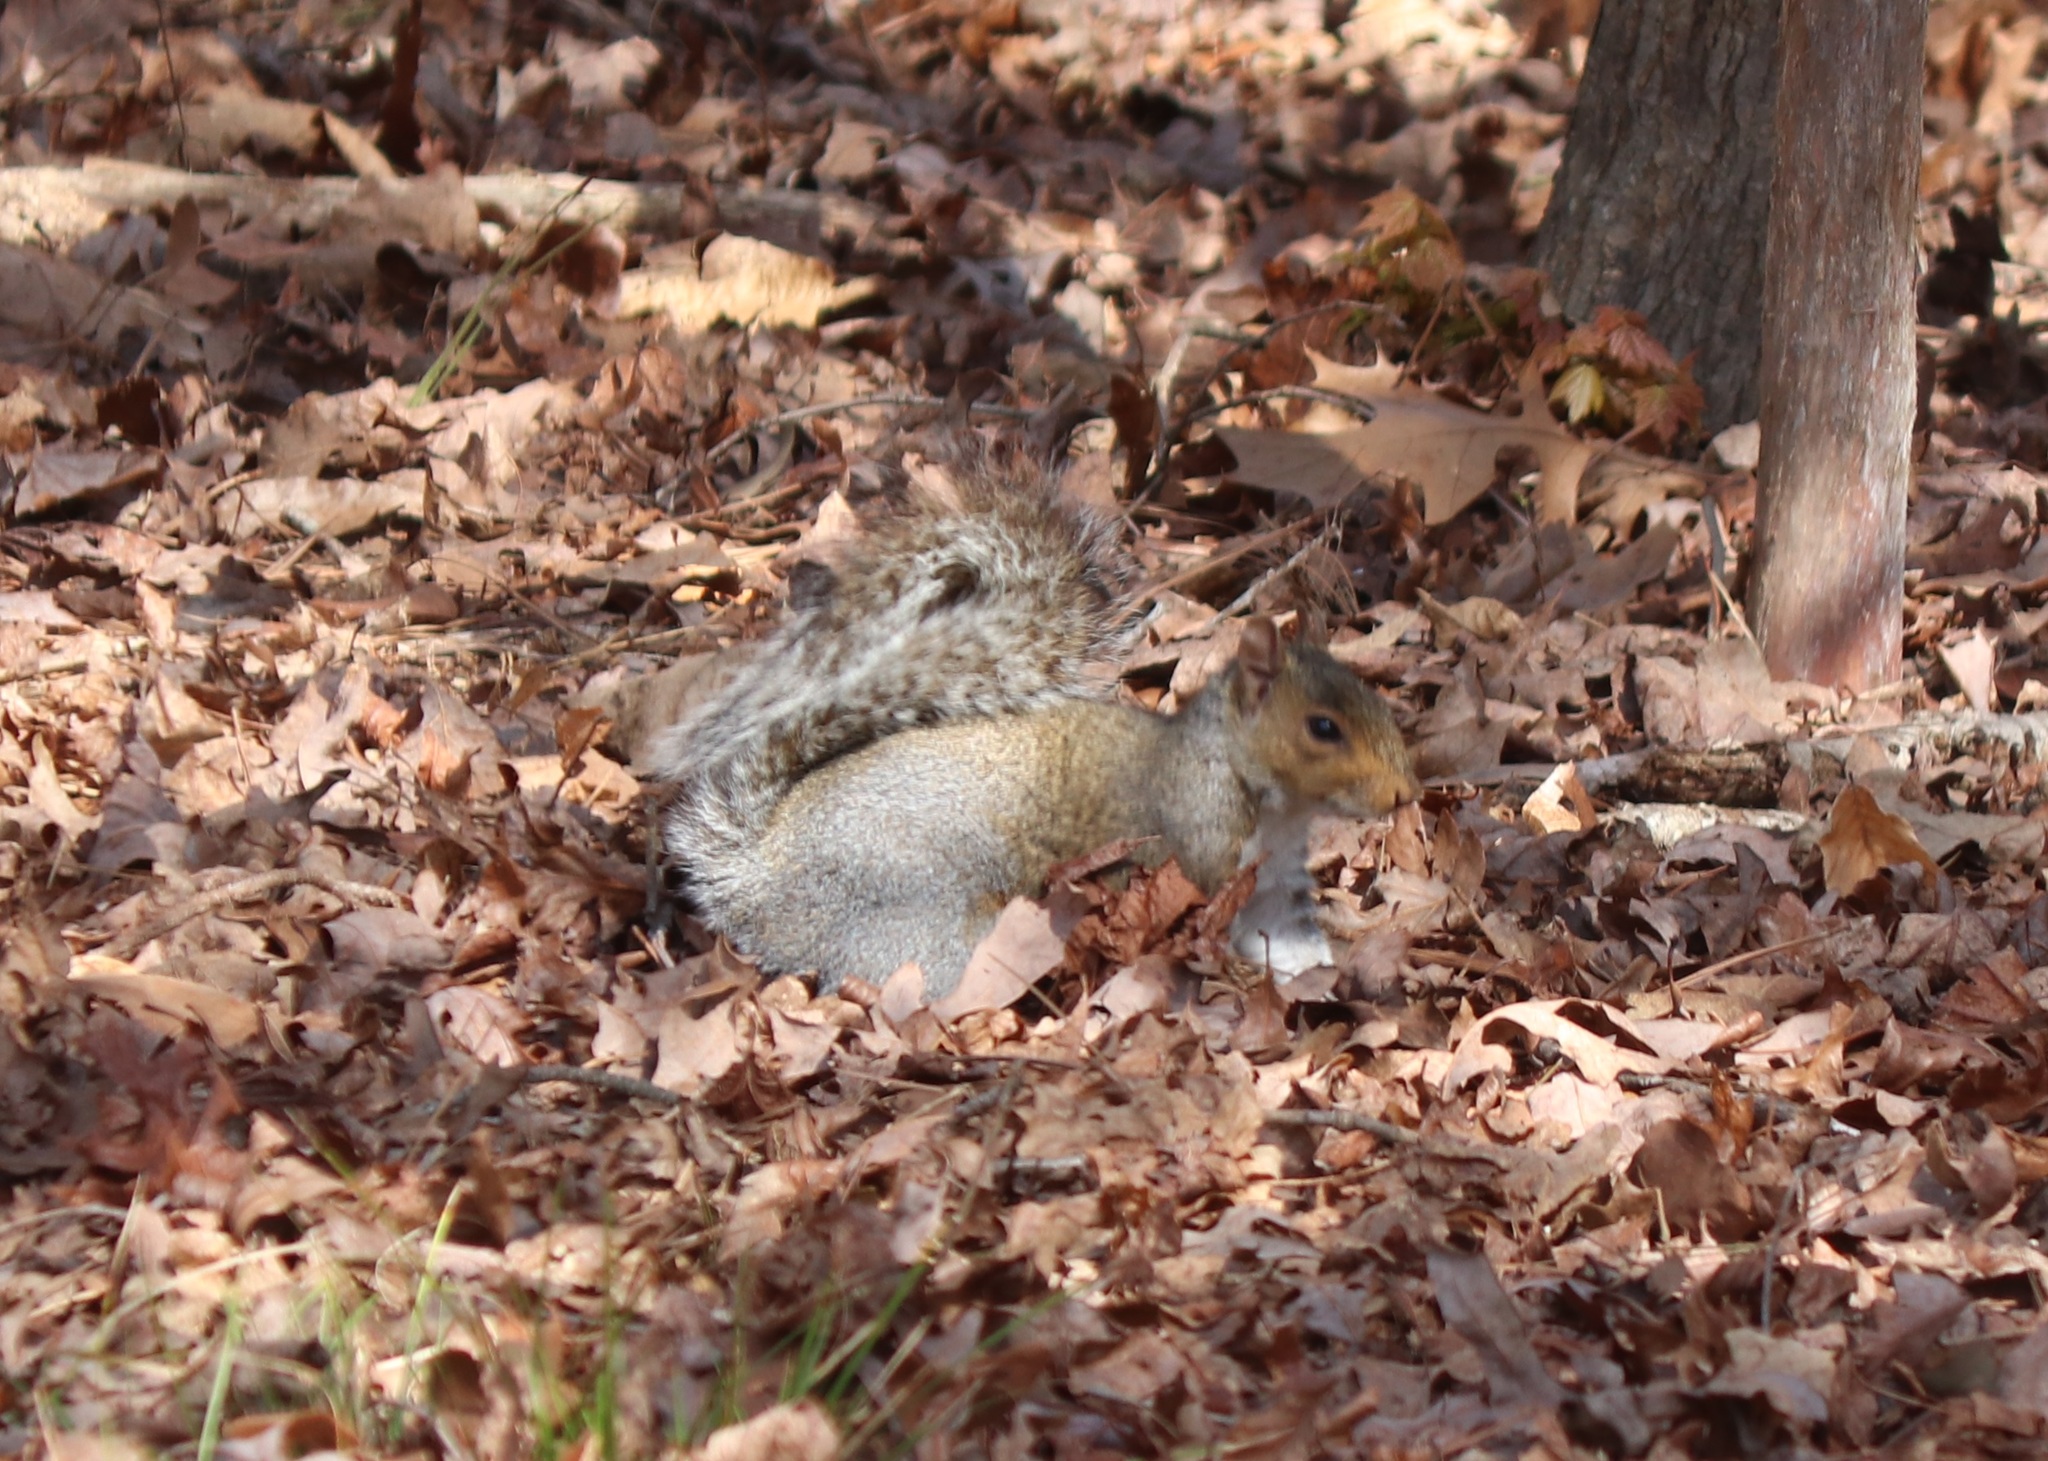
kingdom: Animalia
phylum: Chordata
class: Mammalia
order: Rodentia
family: Sciuridae
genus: Sciurus
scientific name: Sciurus carolinensis
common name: Eastern gray squirrel
